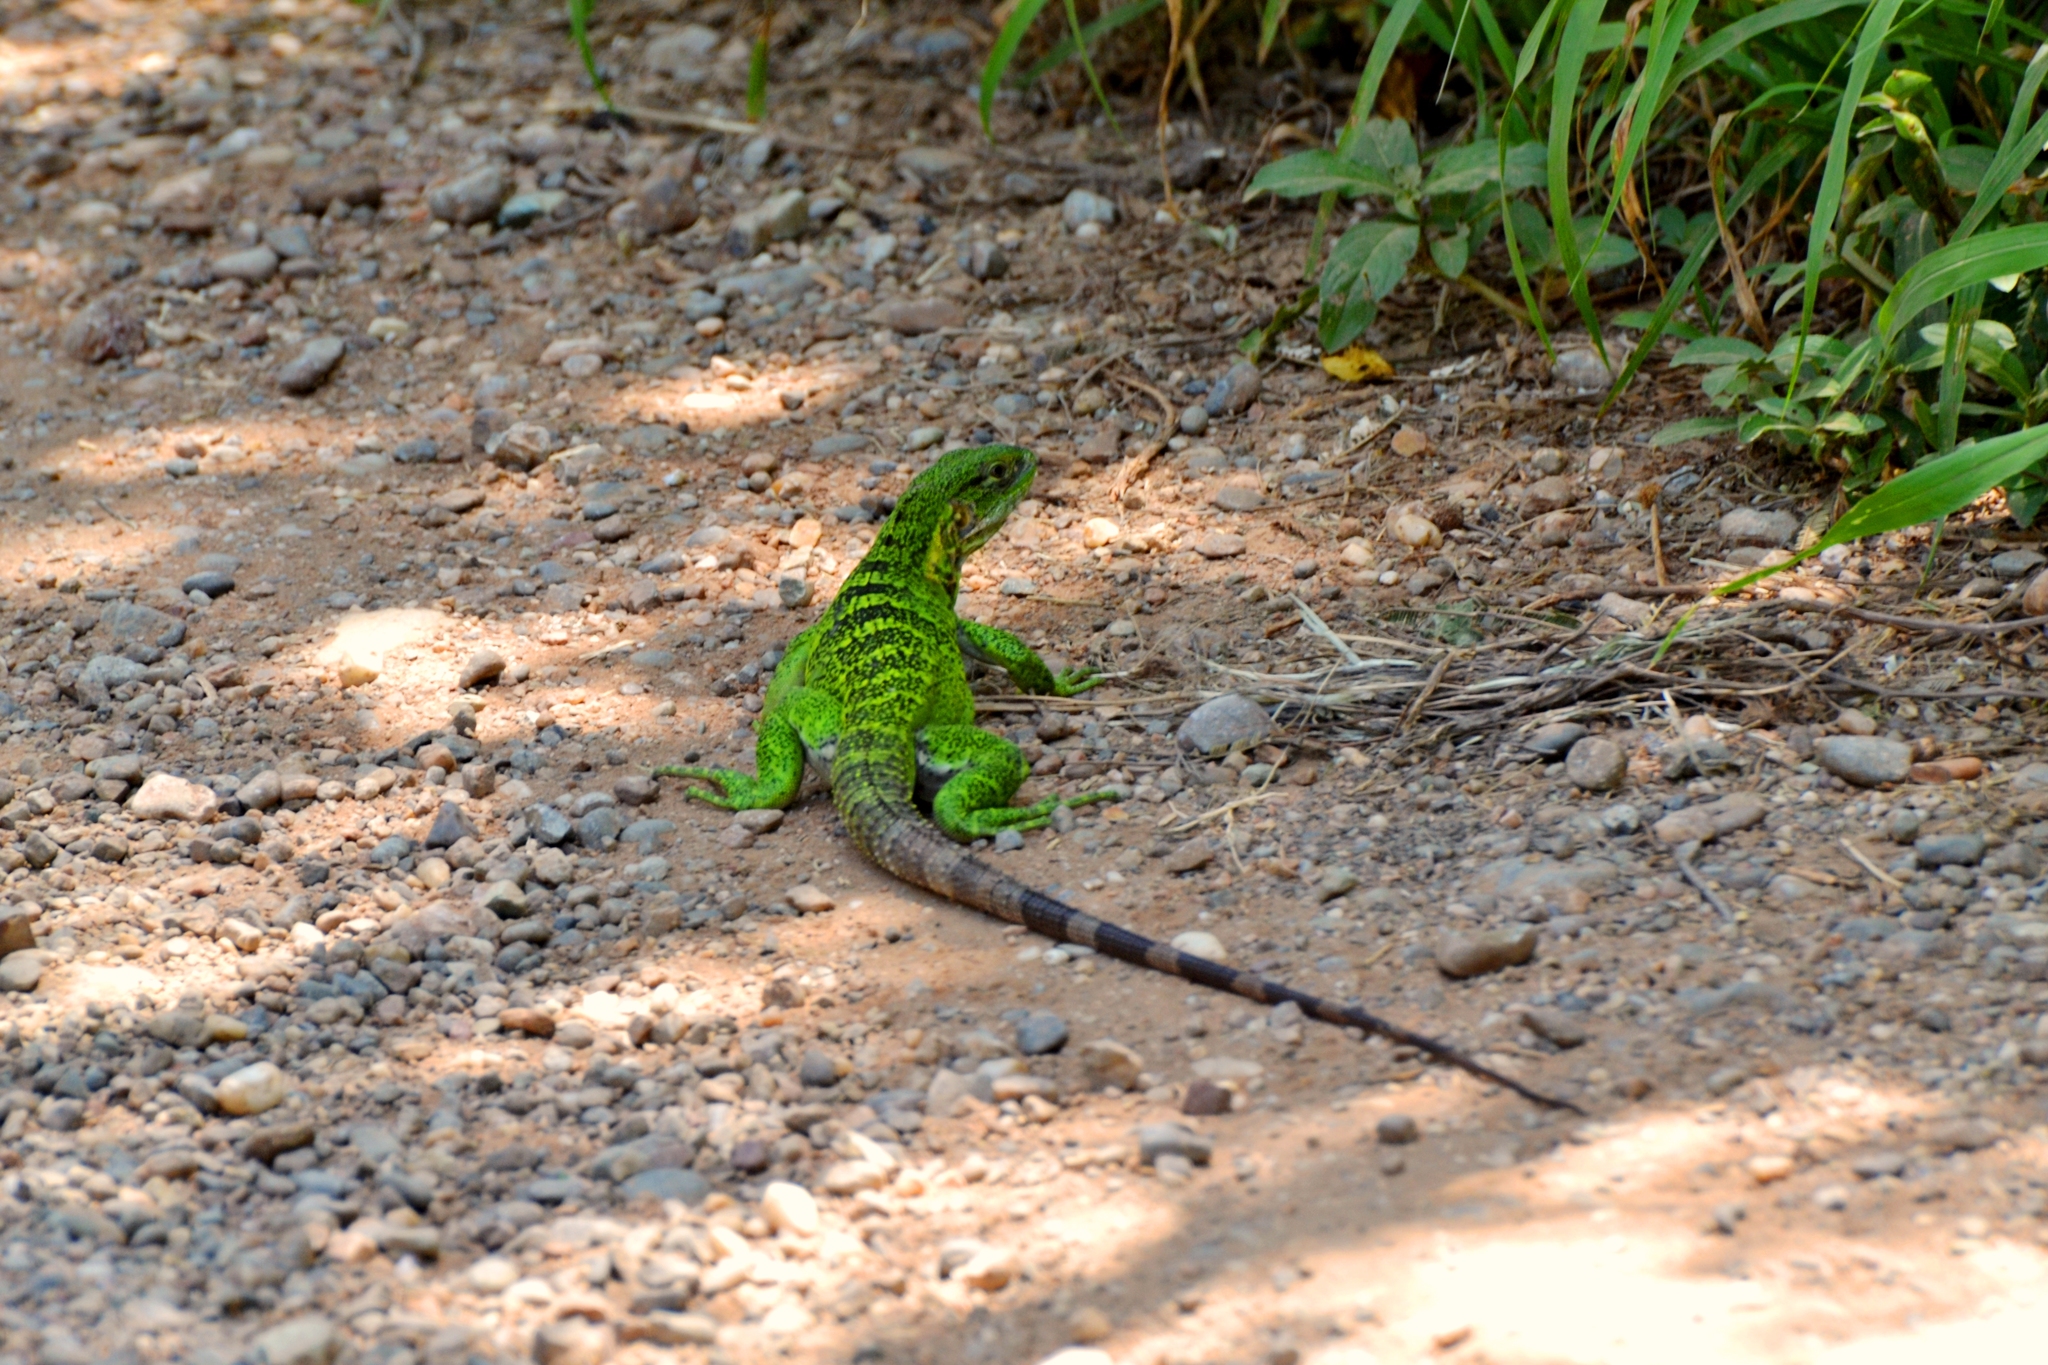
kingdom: Animalia
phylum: Chordata
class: Squamata
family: Iguanidae
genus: Ctenosaura
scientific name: Ctenosaura pectinata
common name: Guerreran spiny-tailed iguana
